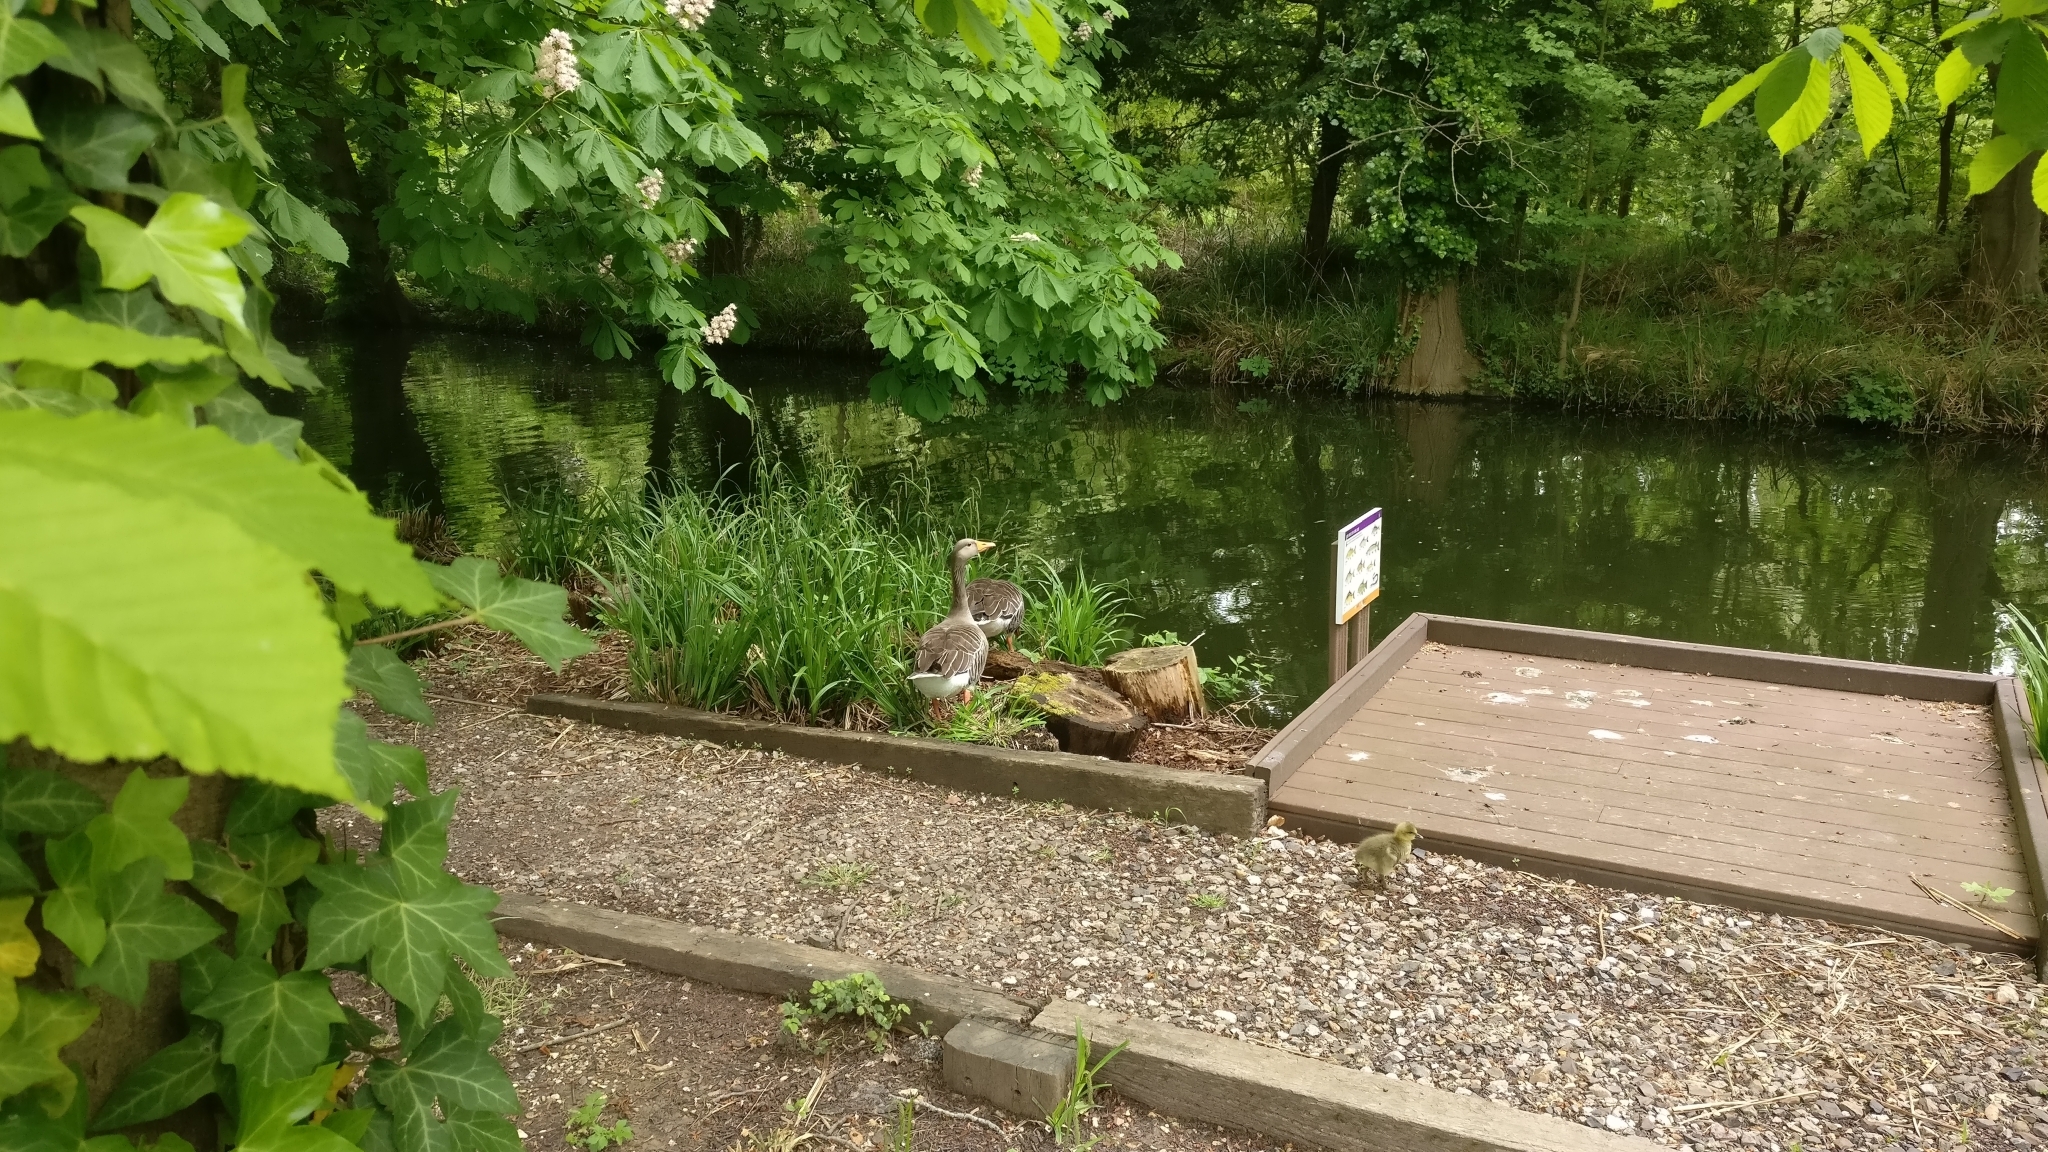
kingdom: Animalia
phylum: Chordata
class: Aves
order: Anseriformes
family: Anatidae
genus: Anser
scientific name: Anser anser
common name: Greylag goose
